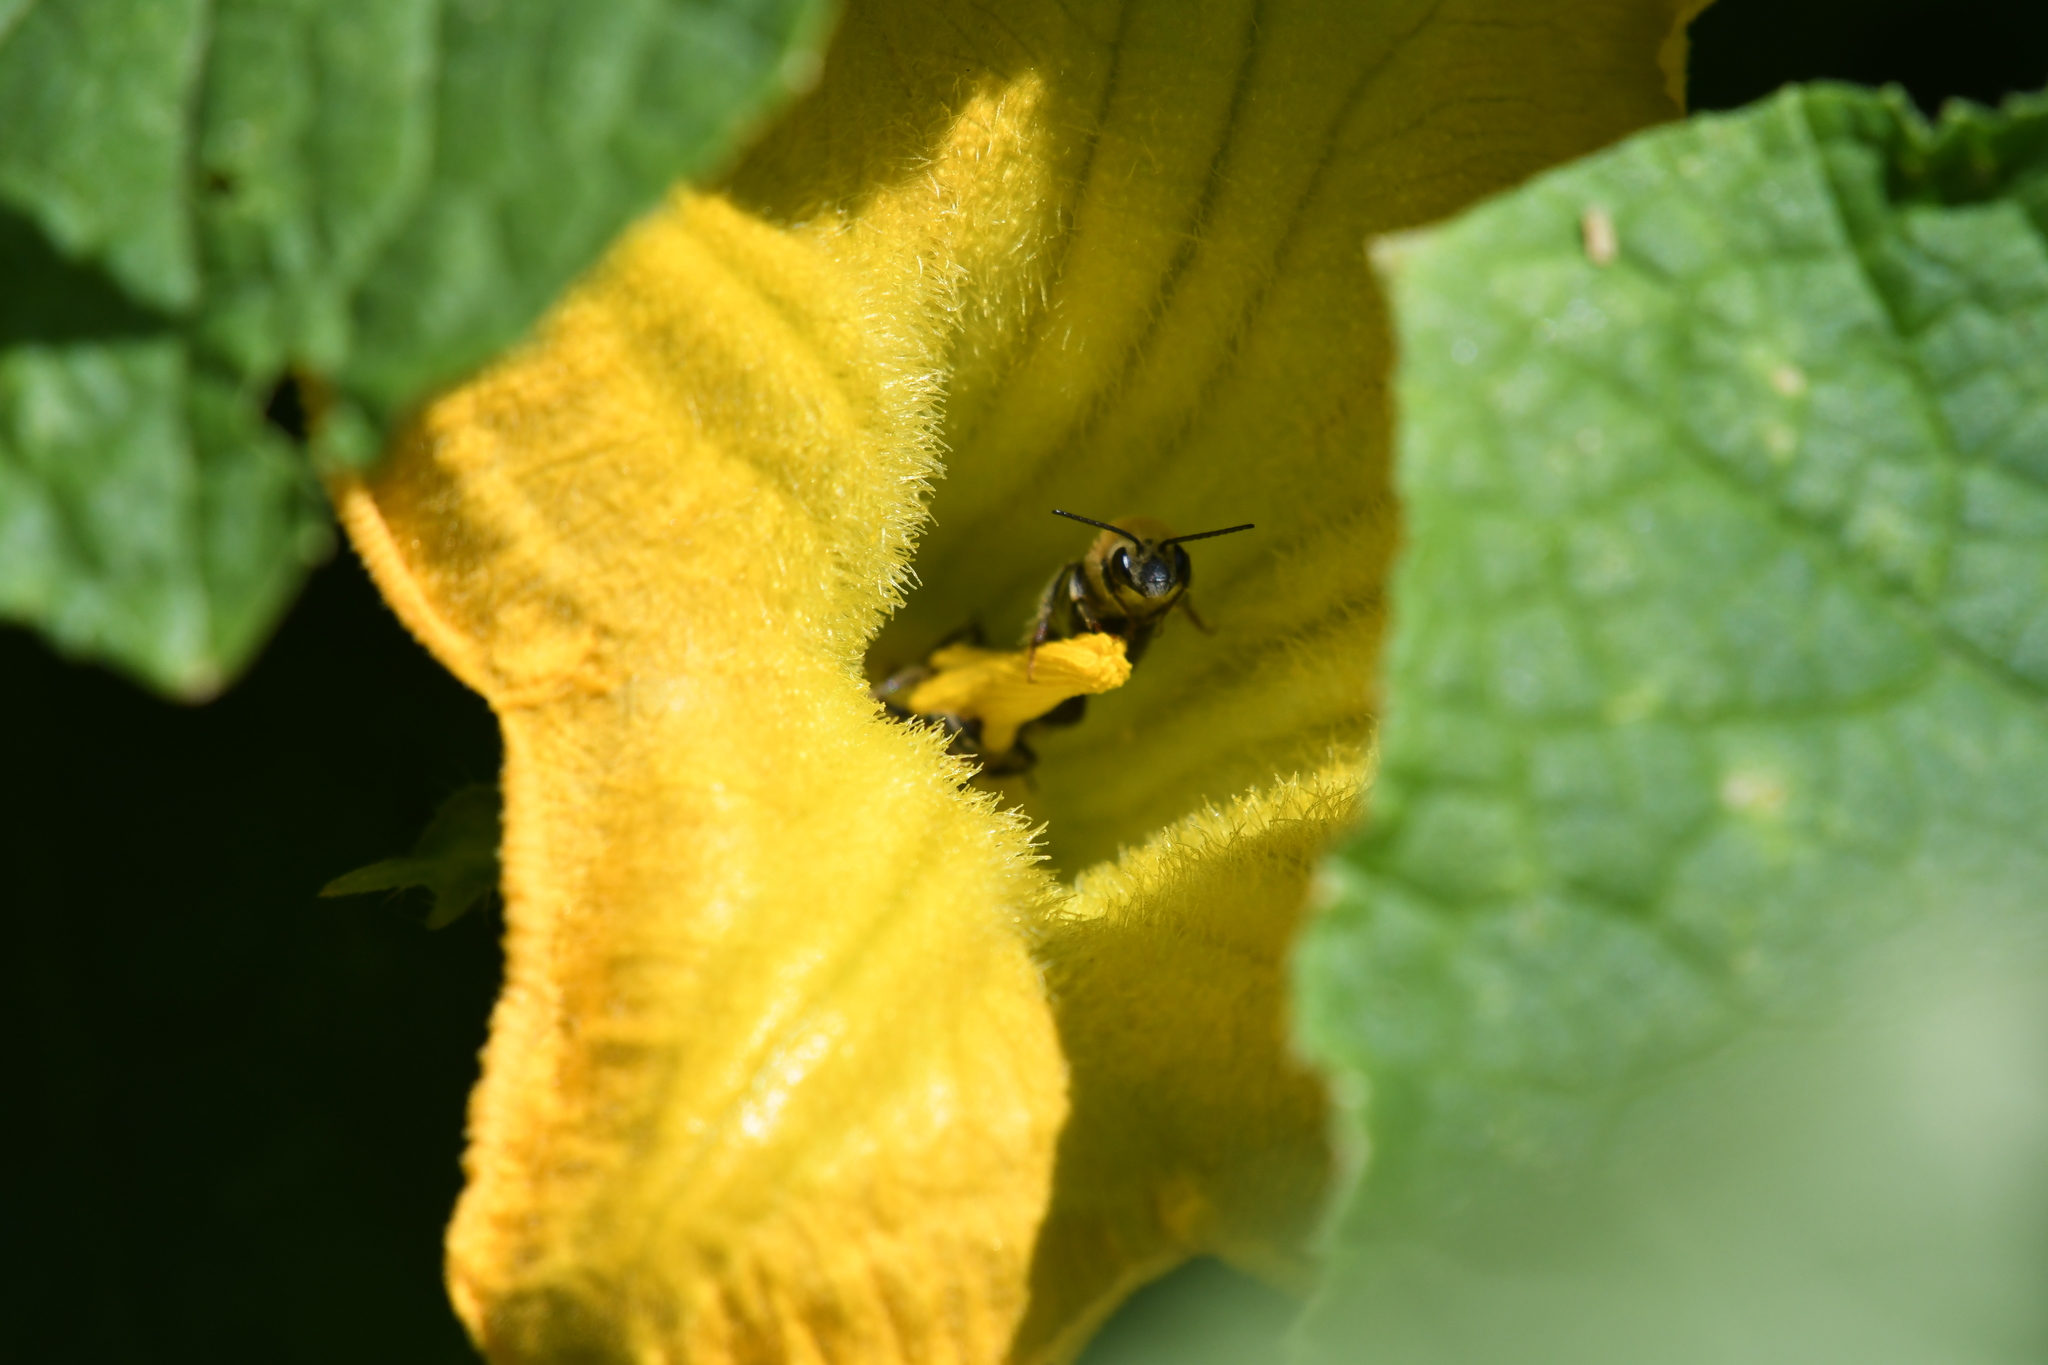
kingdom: Animalia
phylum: Arthropoda
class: Insecta
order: Hymenoptera
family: Apidae
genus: Peponapis
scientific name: Peponapis pruinosa
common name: Pruinose squash bee
